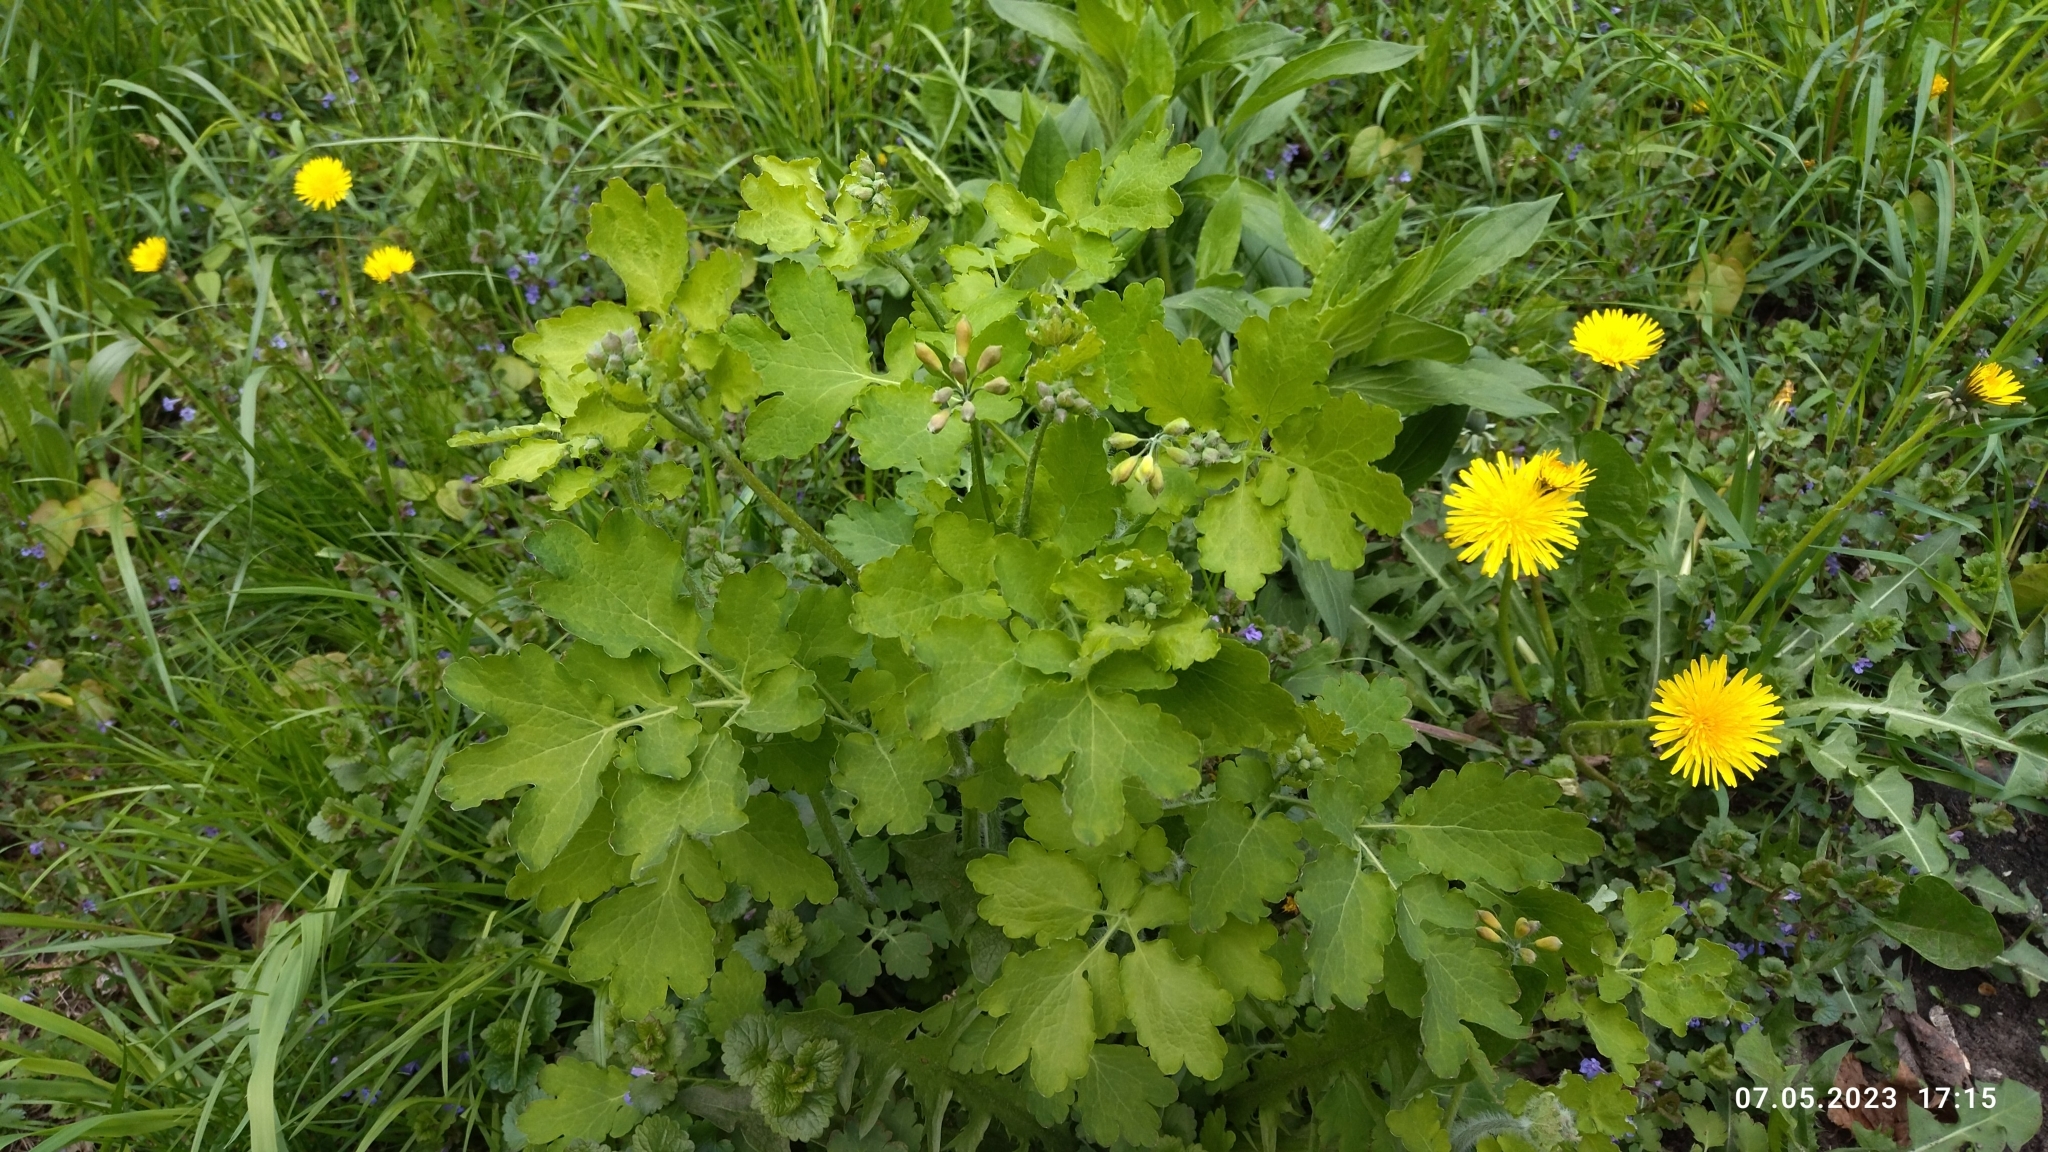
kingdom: Plantae
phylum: Tracheophyta
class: Magnoliopsida
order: Ranunculales
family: Papaveraceae
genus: Chelidonium
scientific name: Chelidonium majus
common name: Greater celandine
